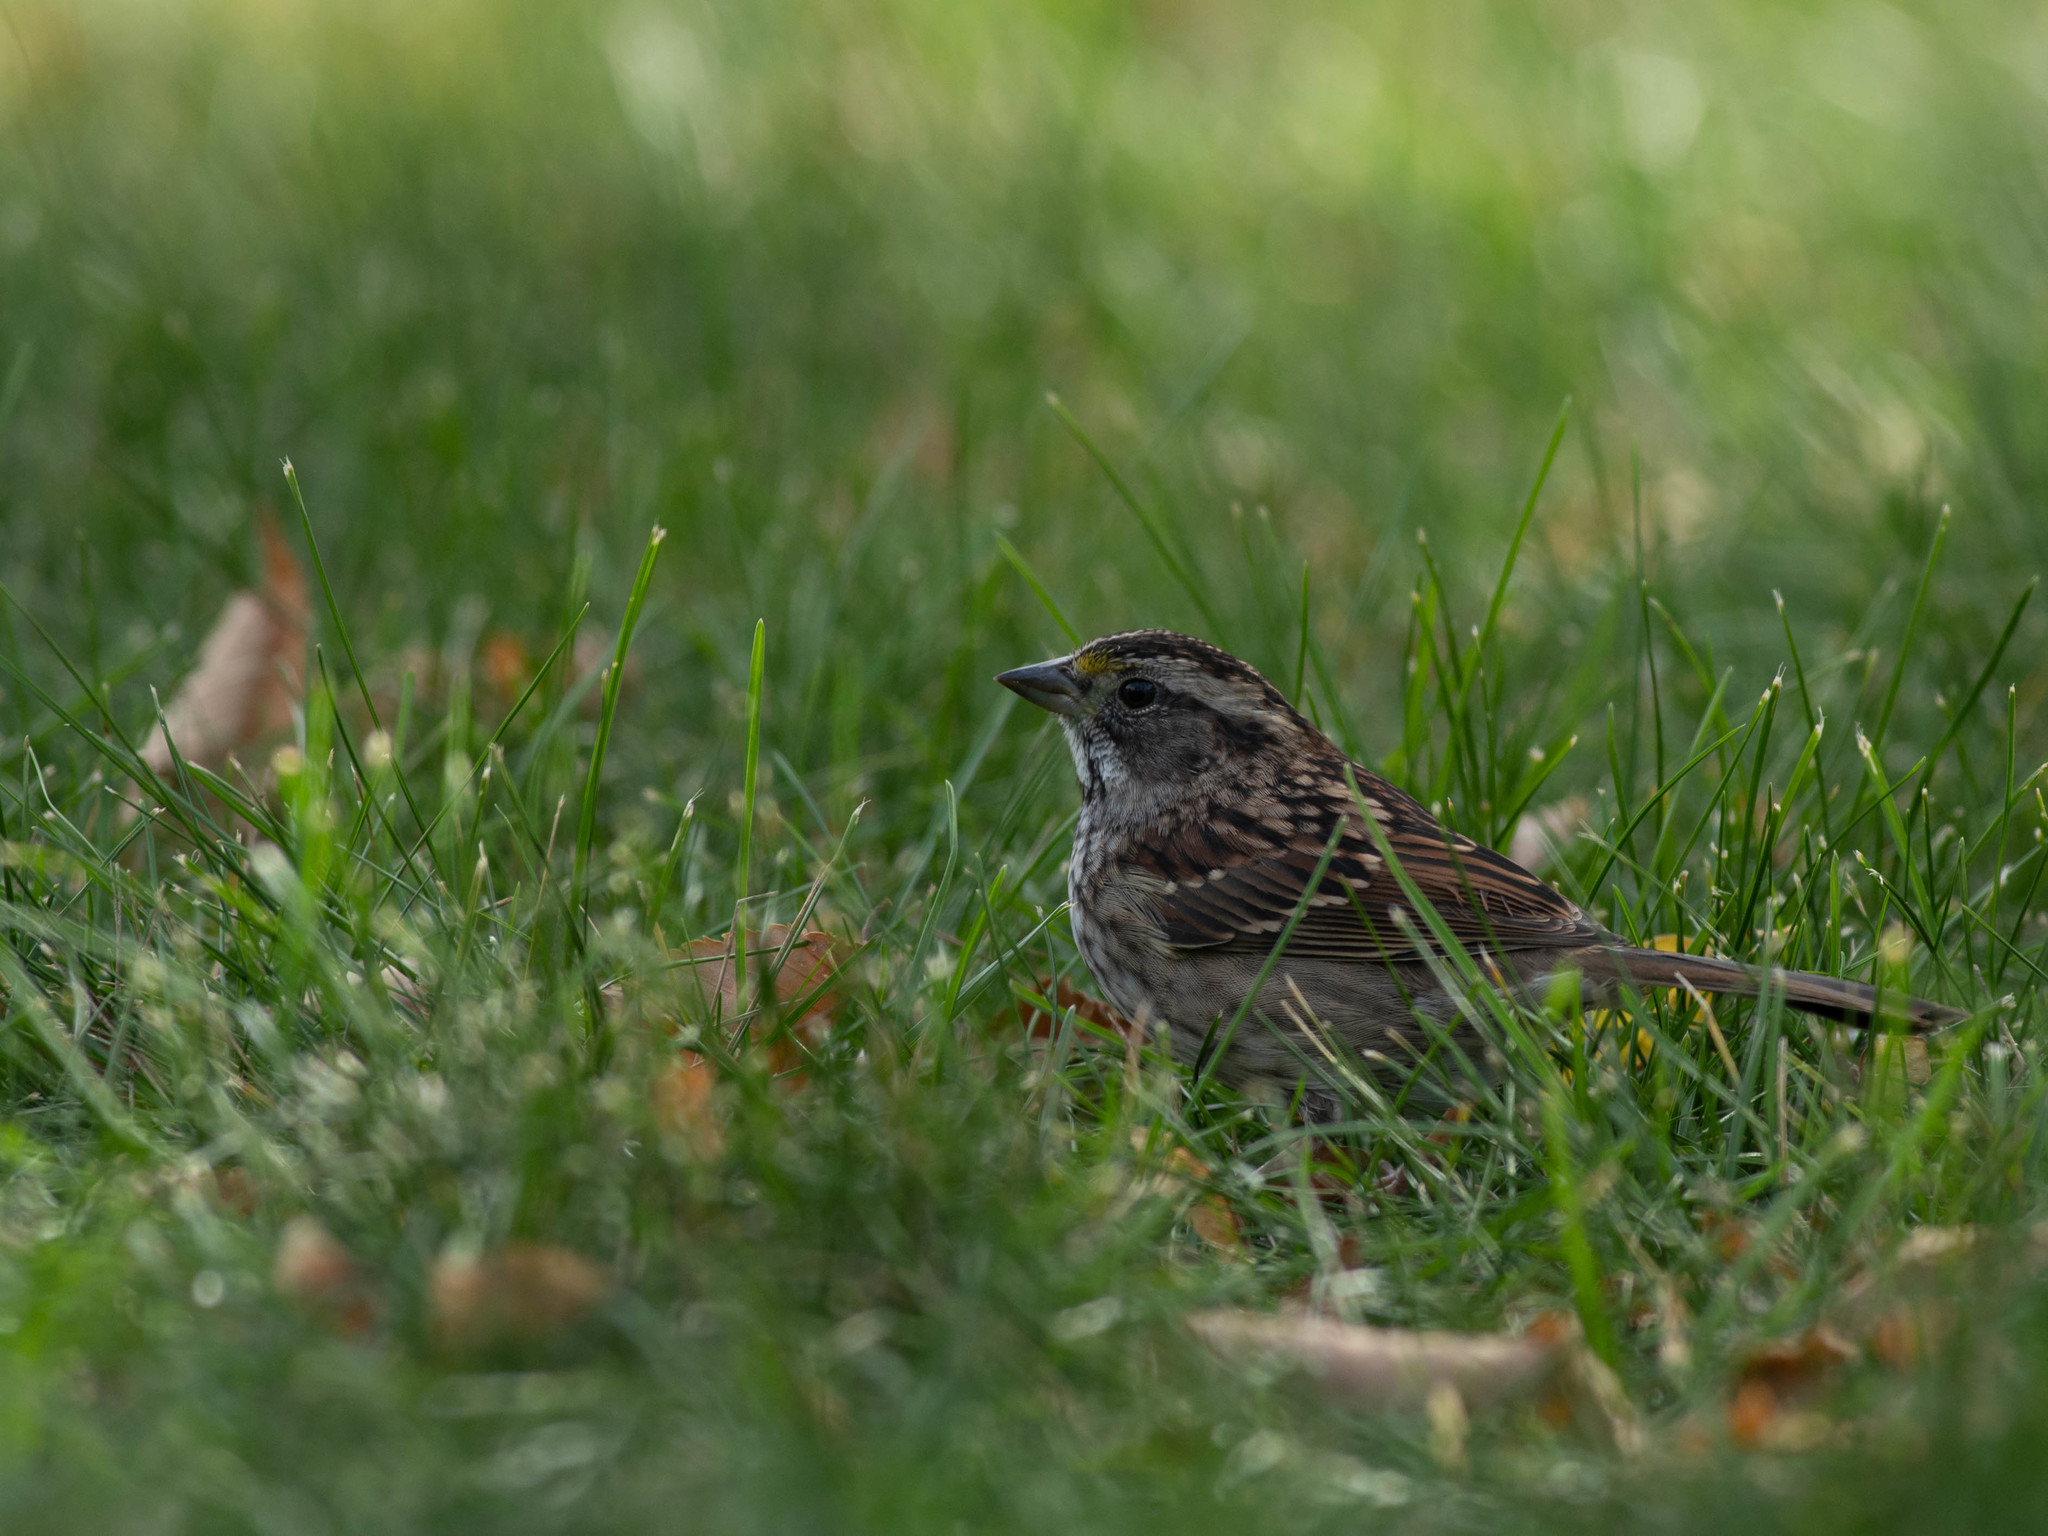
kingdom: Animalia
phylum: Chordata
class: Aves
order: Passeriformes
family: Passerellidae
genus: Zonotrichia
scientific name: Zonotrichia albicollis
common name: White-throated sparrow
